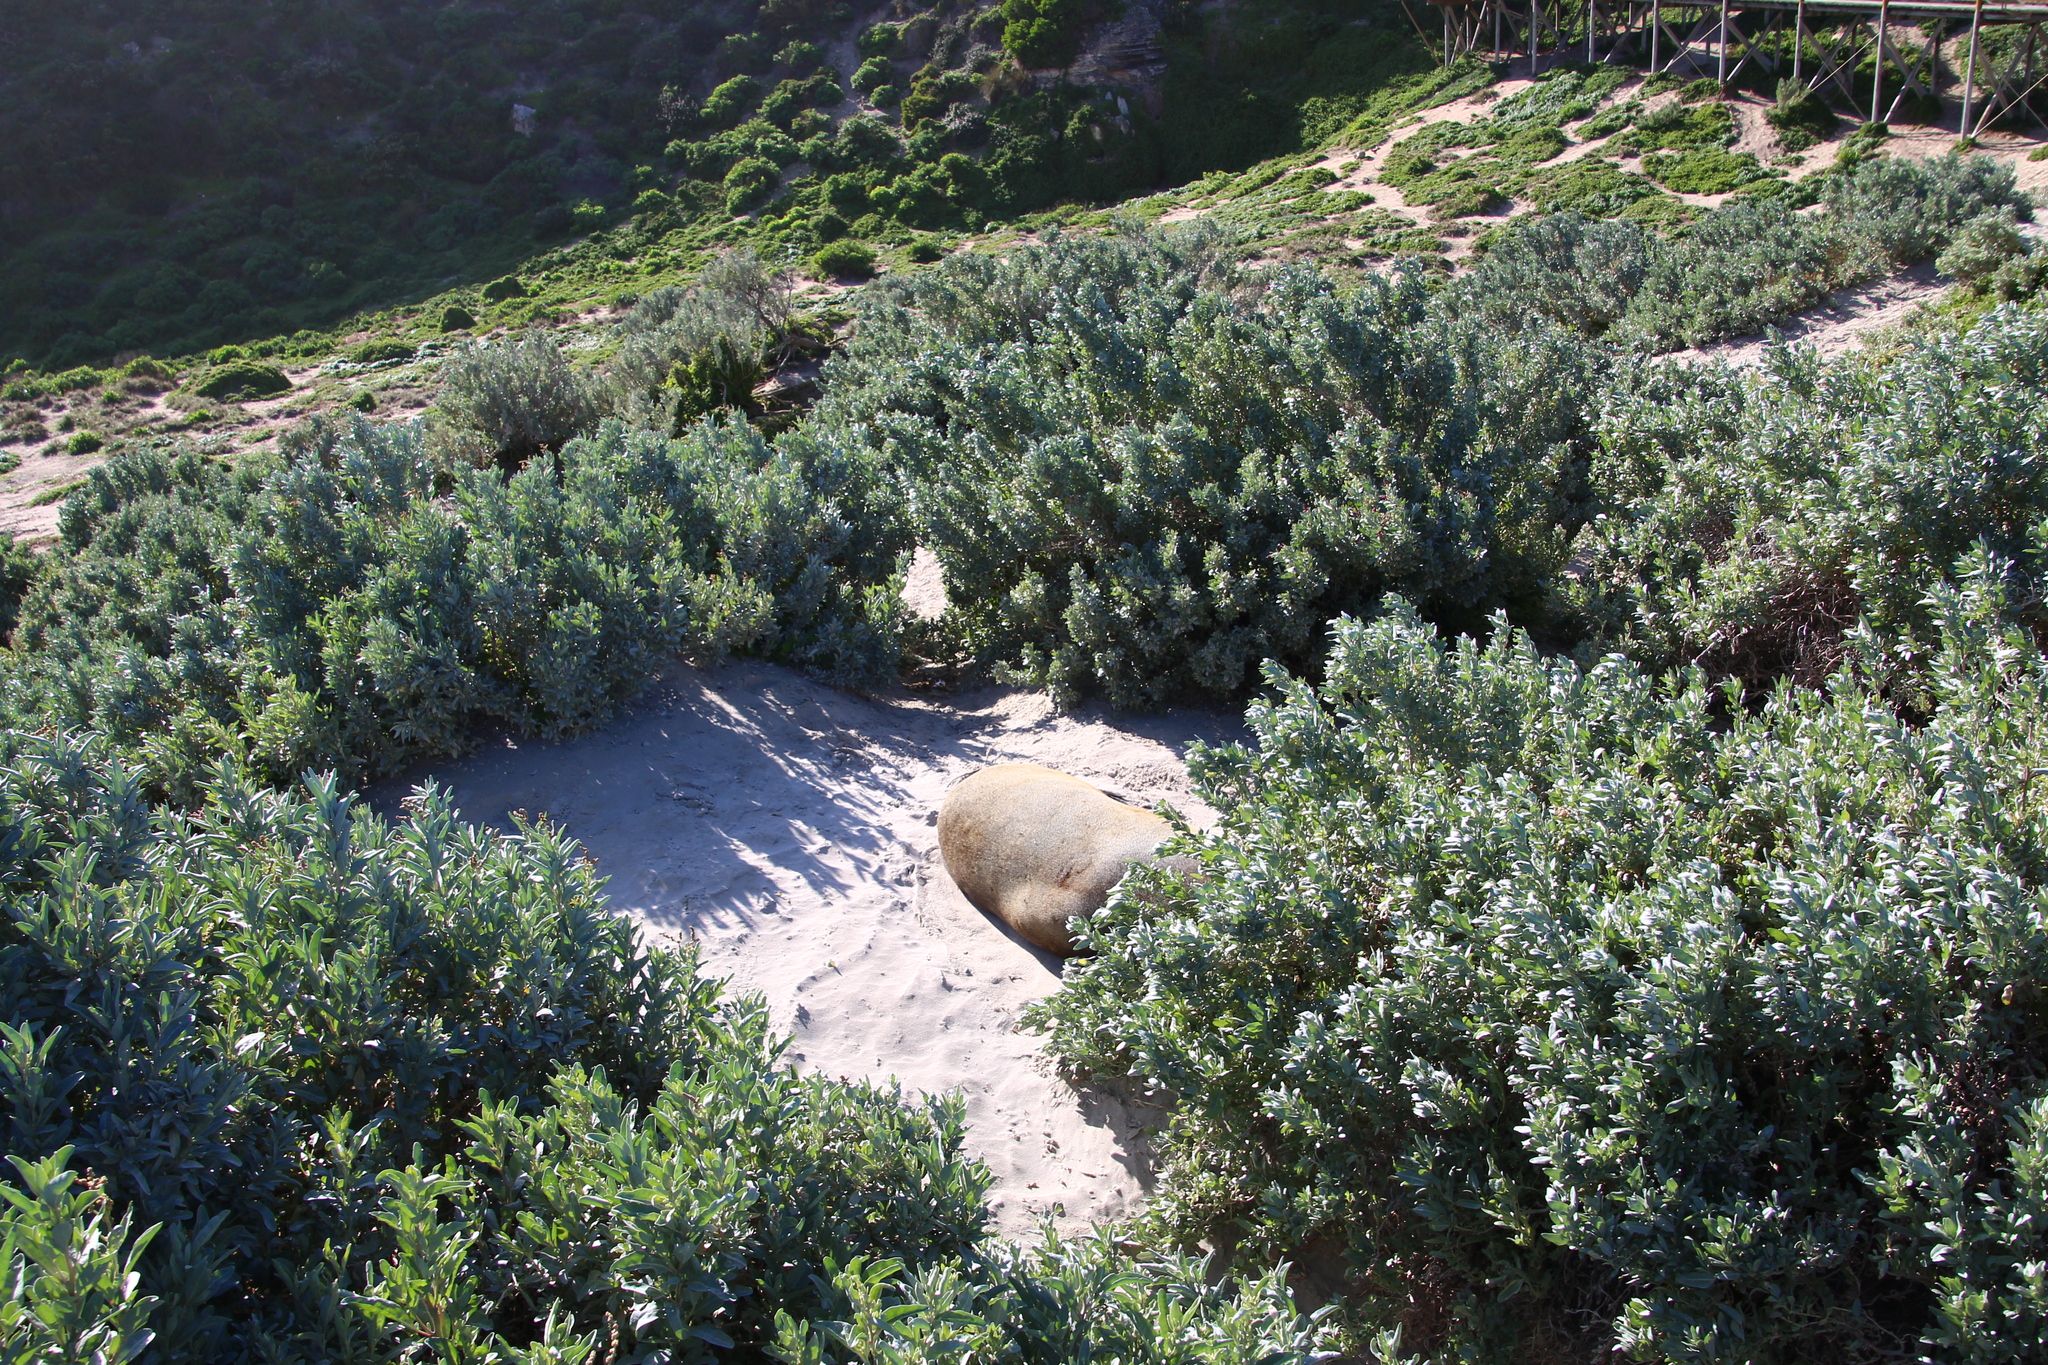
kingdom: Animalia
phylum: Chordata
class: Mammalia
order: Carnivora
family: Otariidae
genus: Neophoca
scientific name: Neophoca cinerea
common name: Australian sea lion
